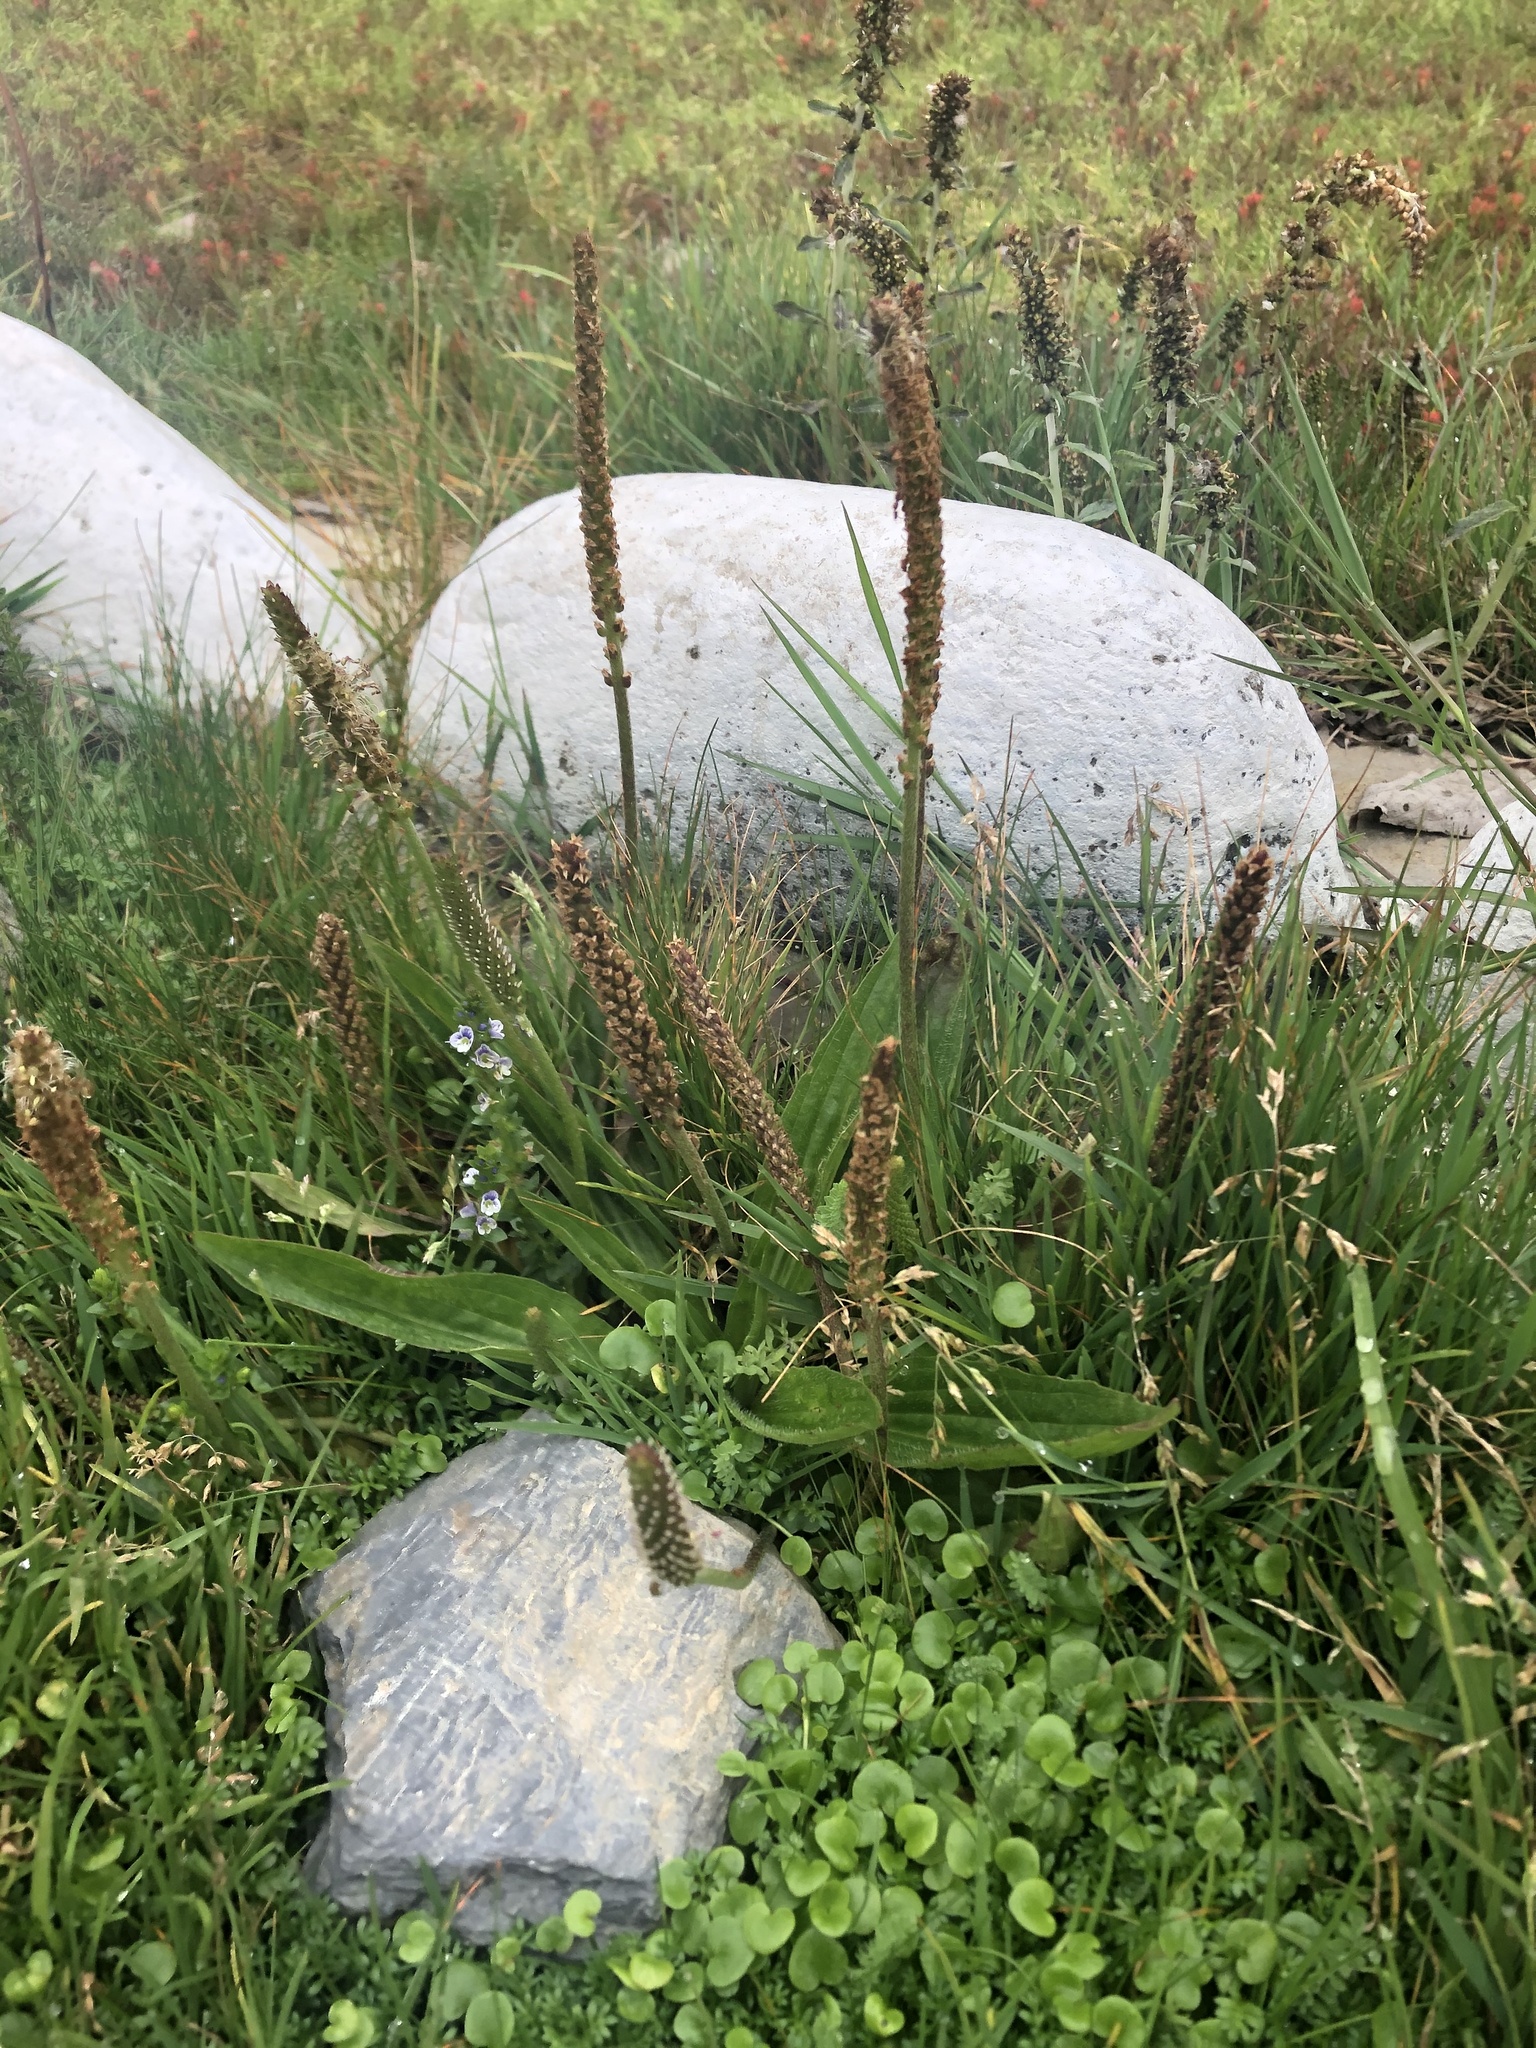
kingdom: Plantae
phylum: Tracheophyta
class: Magnoliopsida
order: Lamiales
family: Plantaginaceae
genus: Veronica
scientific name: Veronica serpyllifolia
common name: Thyme-leaved speedwell
